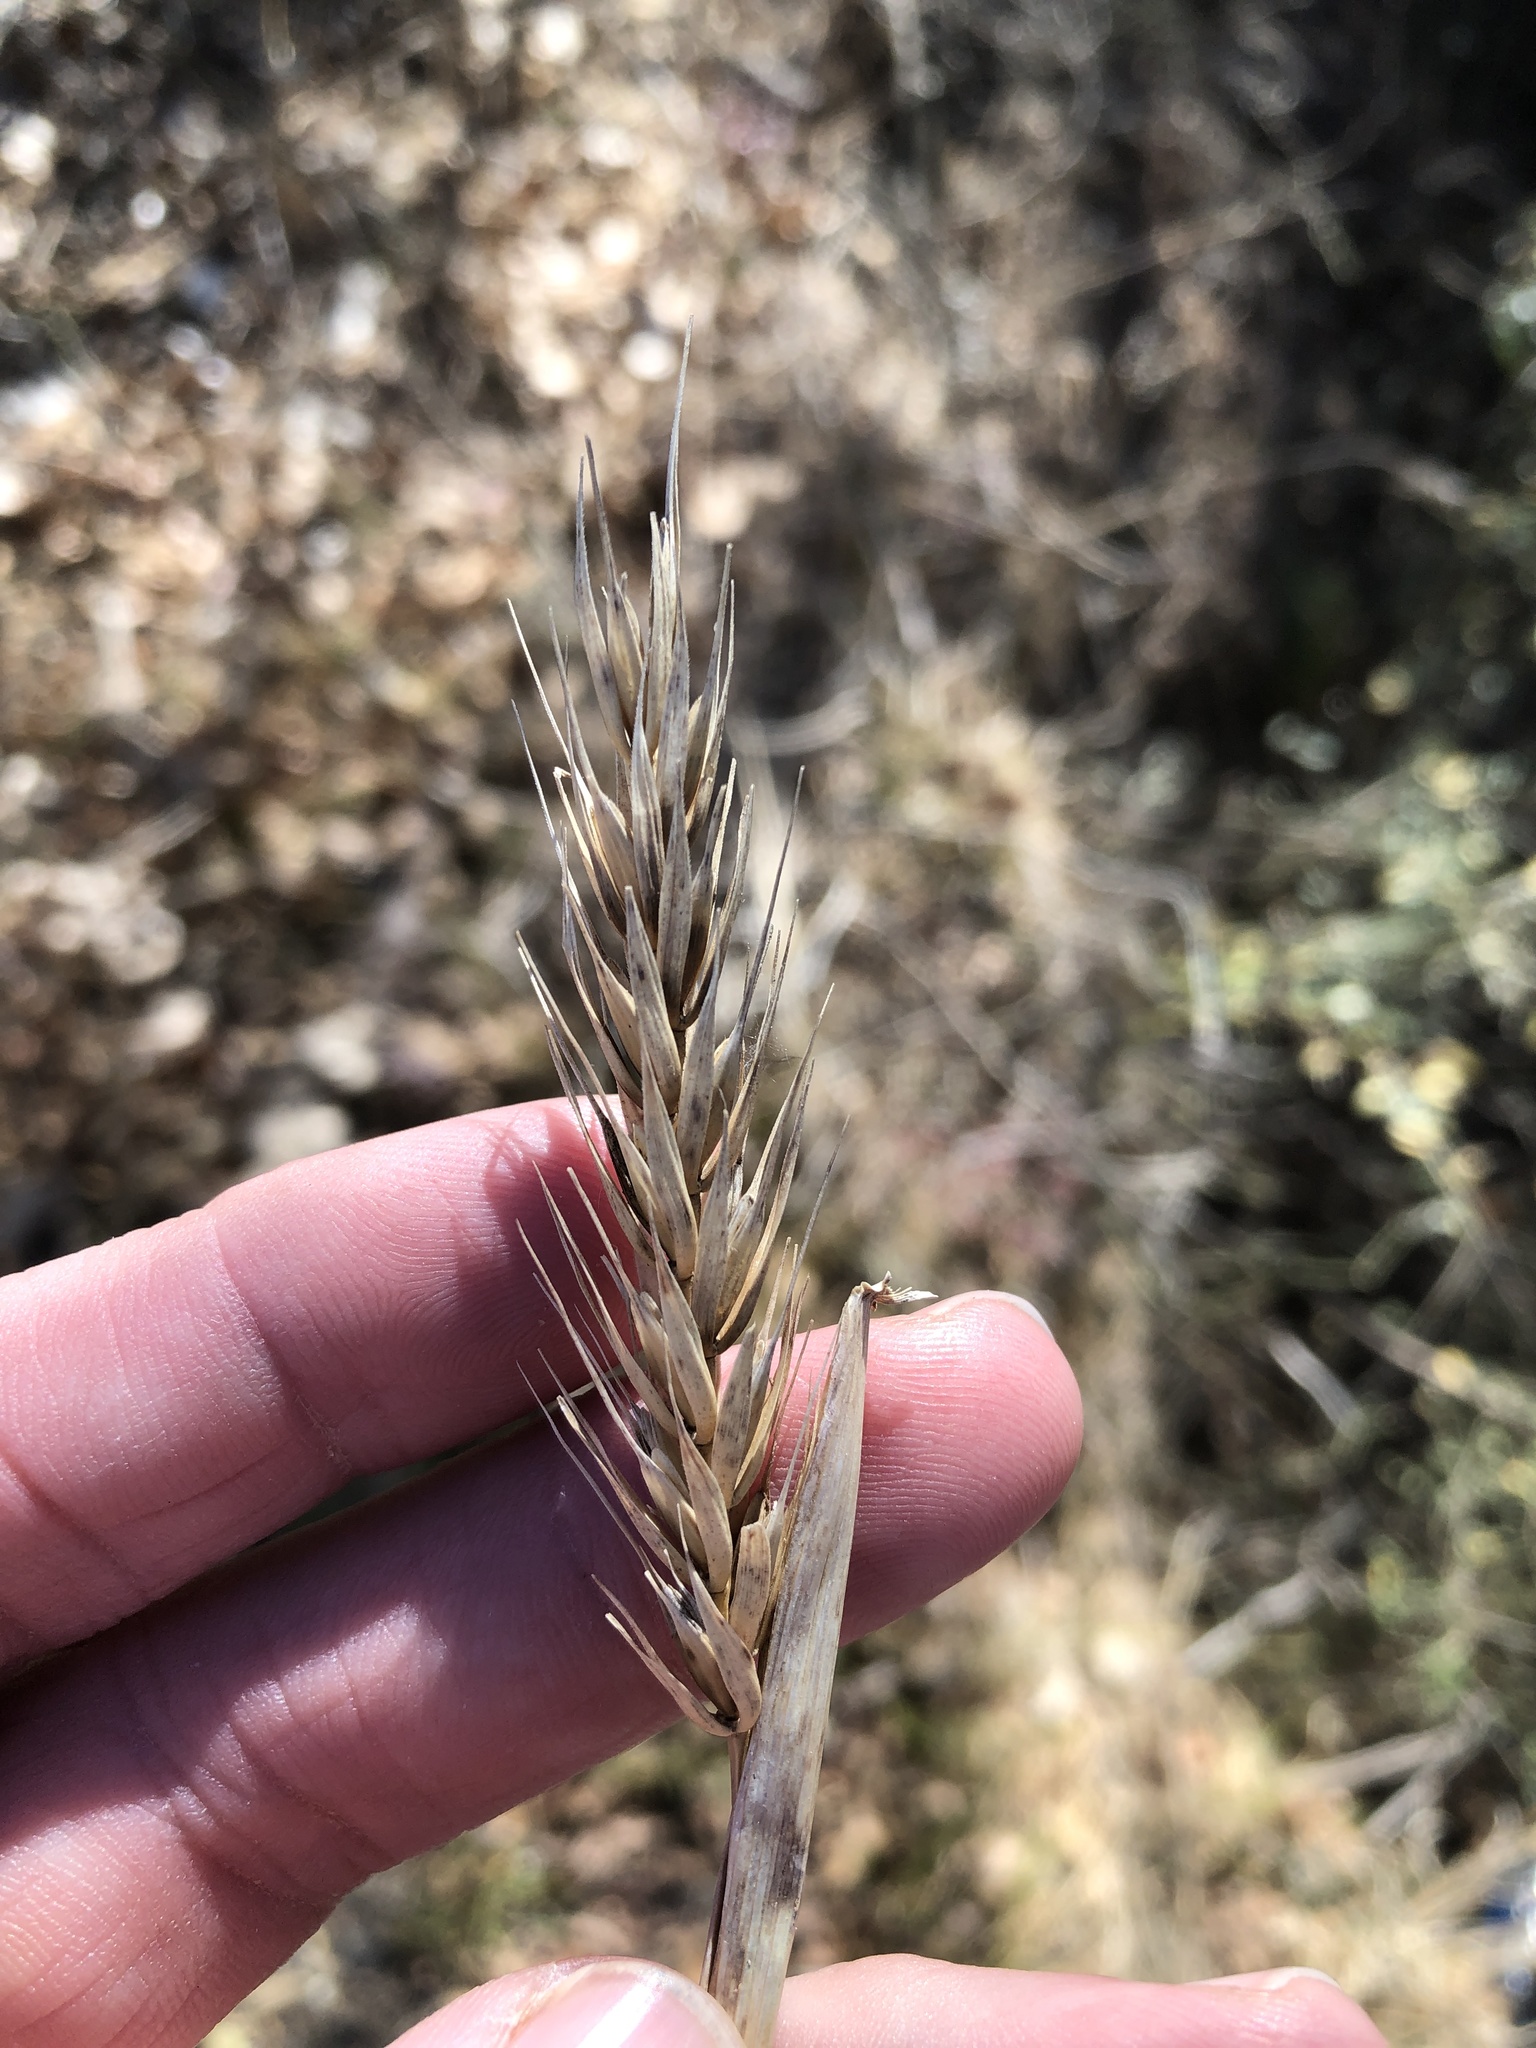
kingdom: Plantae
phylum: Tracheophyta
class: Liliopsida
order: Poales
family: Poaceae
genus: Elymus
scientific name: Elymus virginicus
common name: Common eastern wildrye
